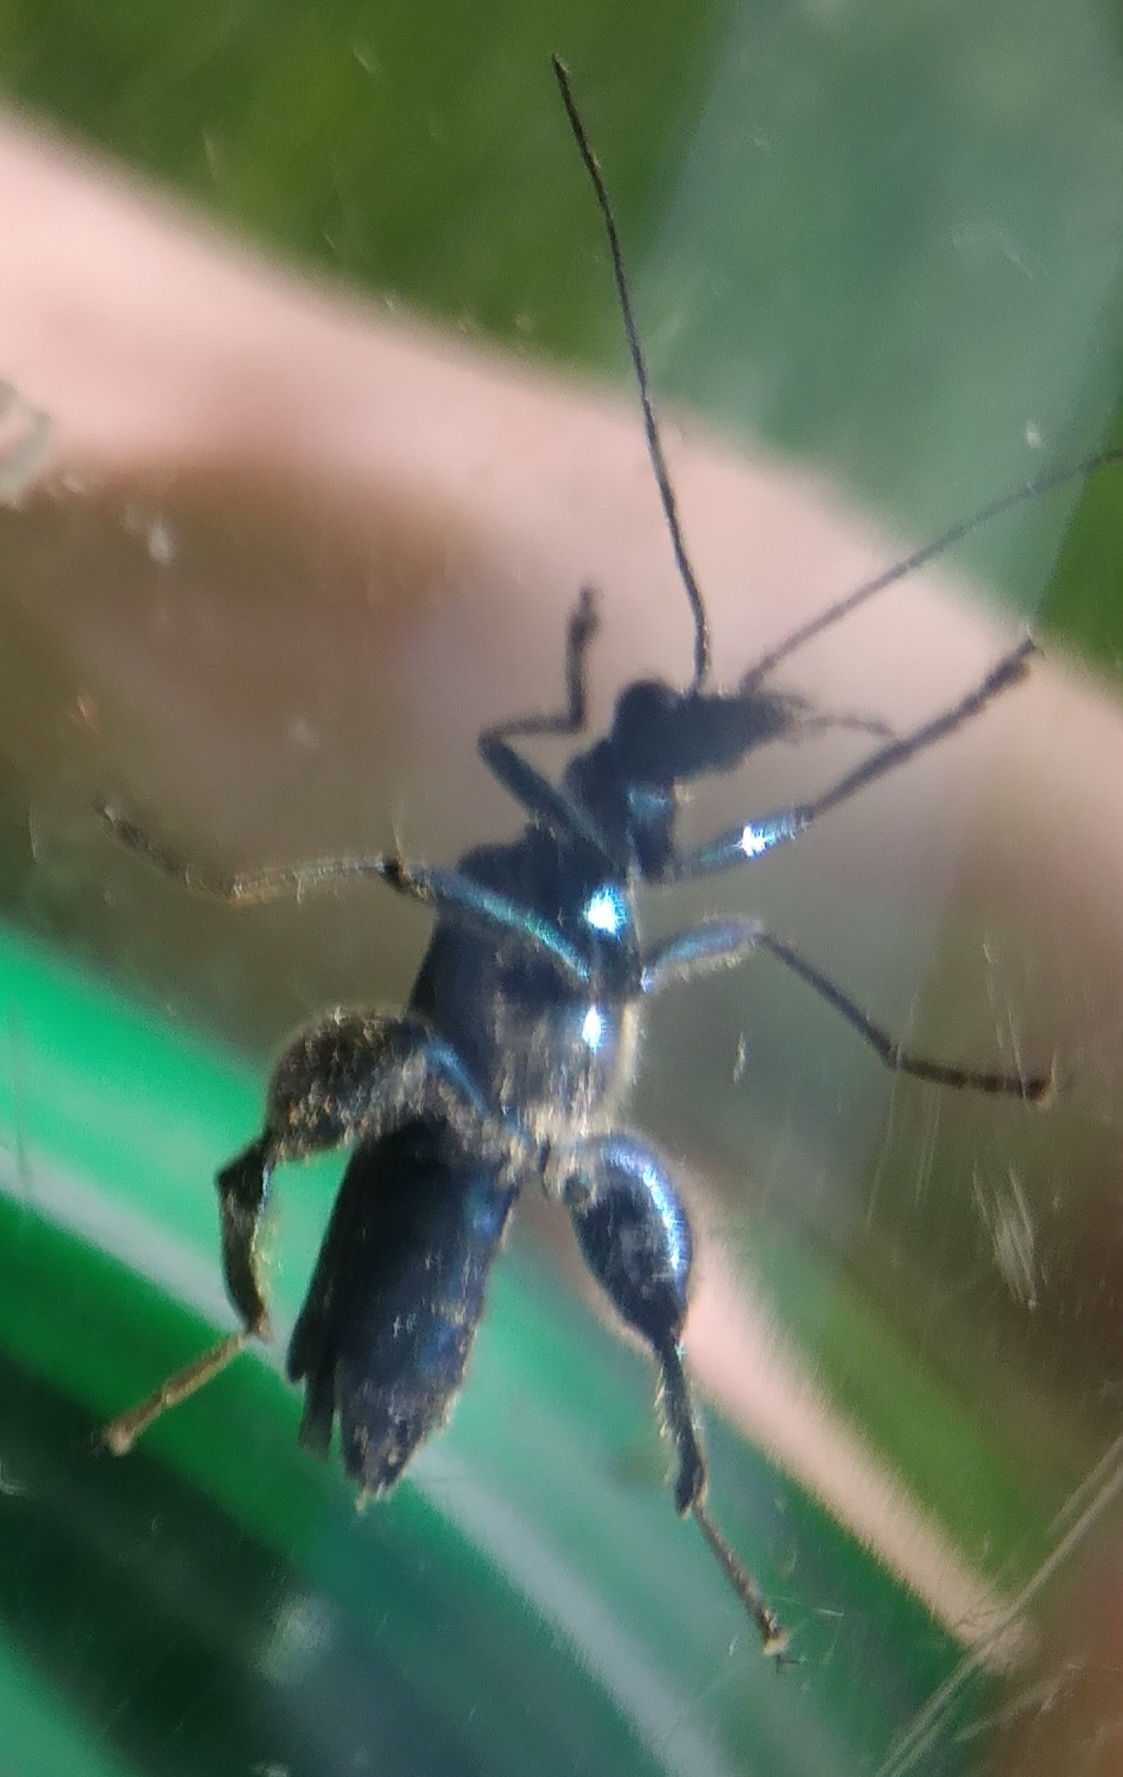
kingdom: Animalia
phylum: Arthropoda
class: Insecta
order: Coleoptera
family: Oedemeridae
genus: Oedemera
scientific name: Oedemera nobilis
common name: Swollen-thighed beetle
